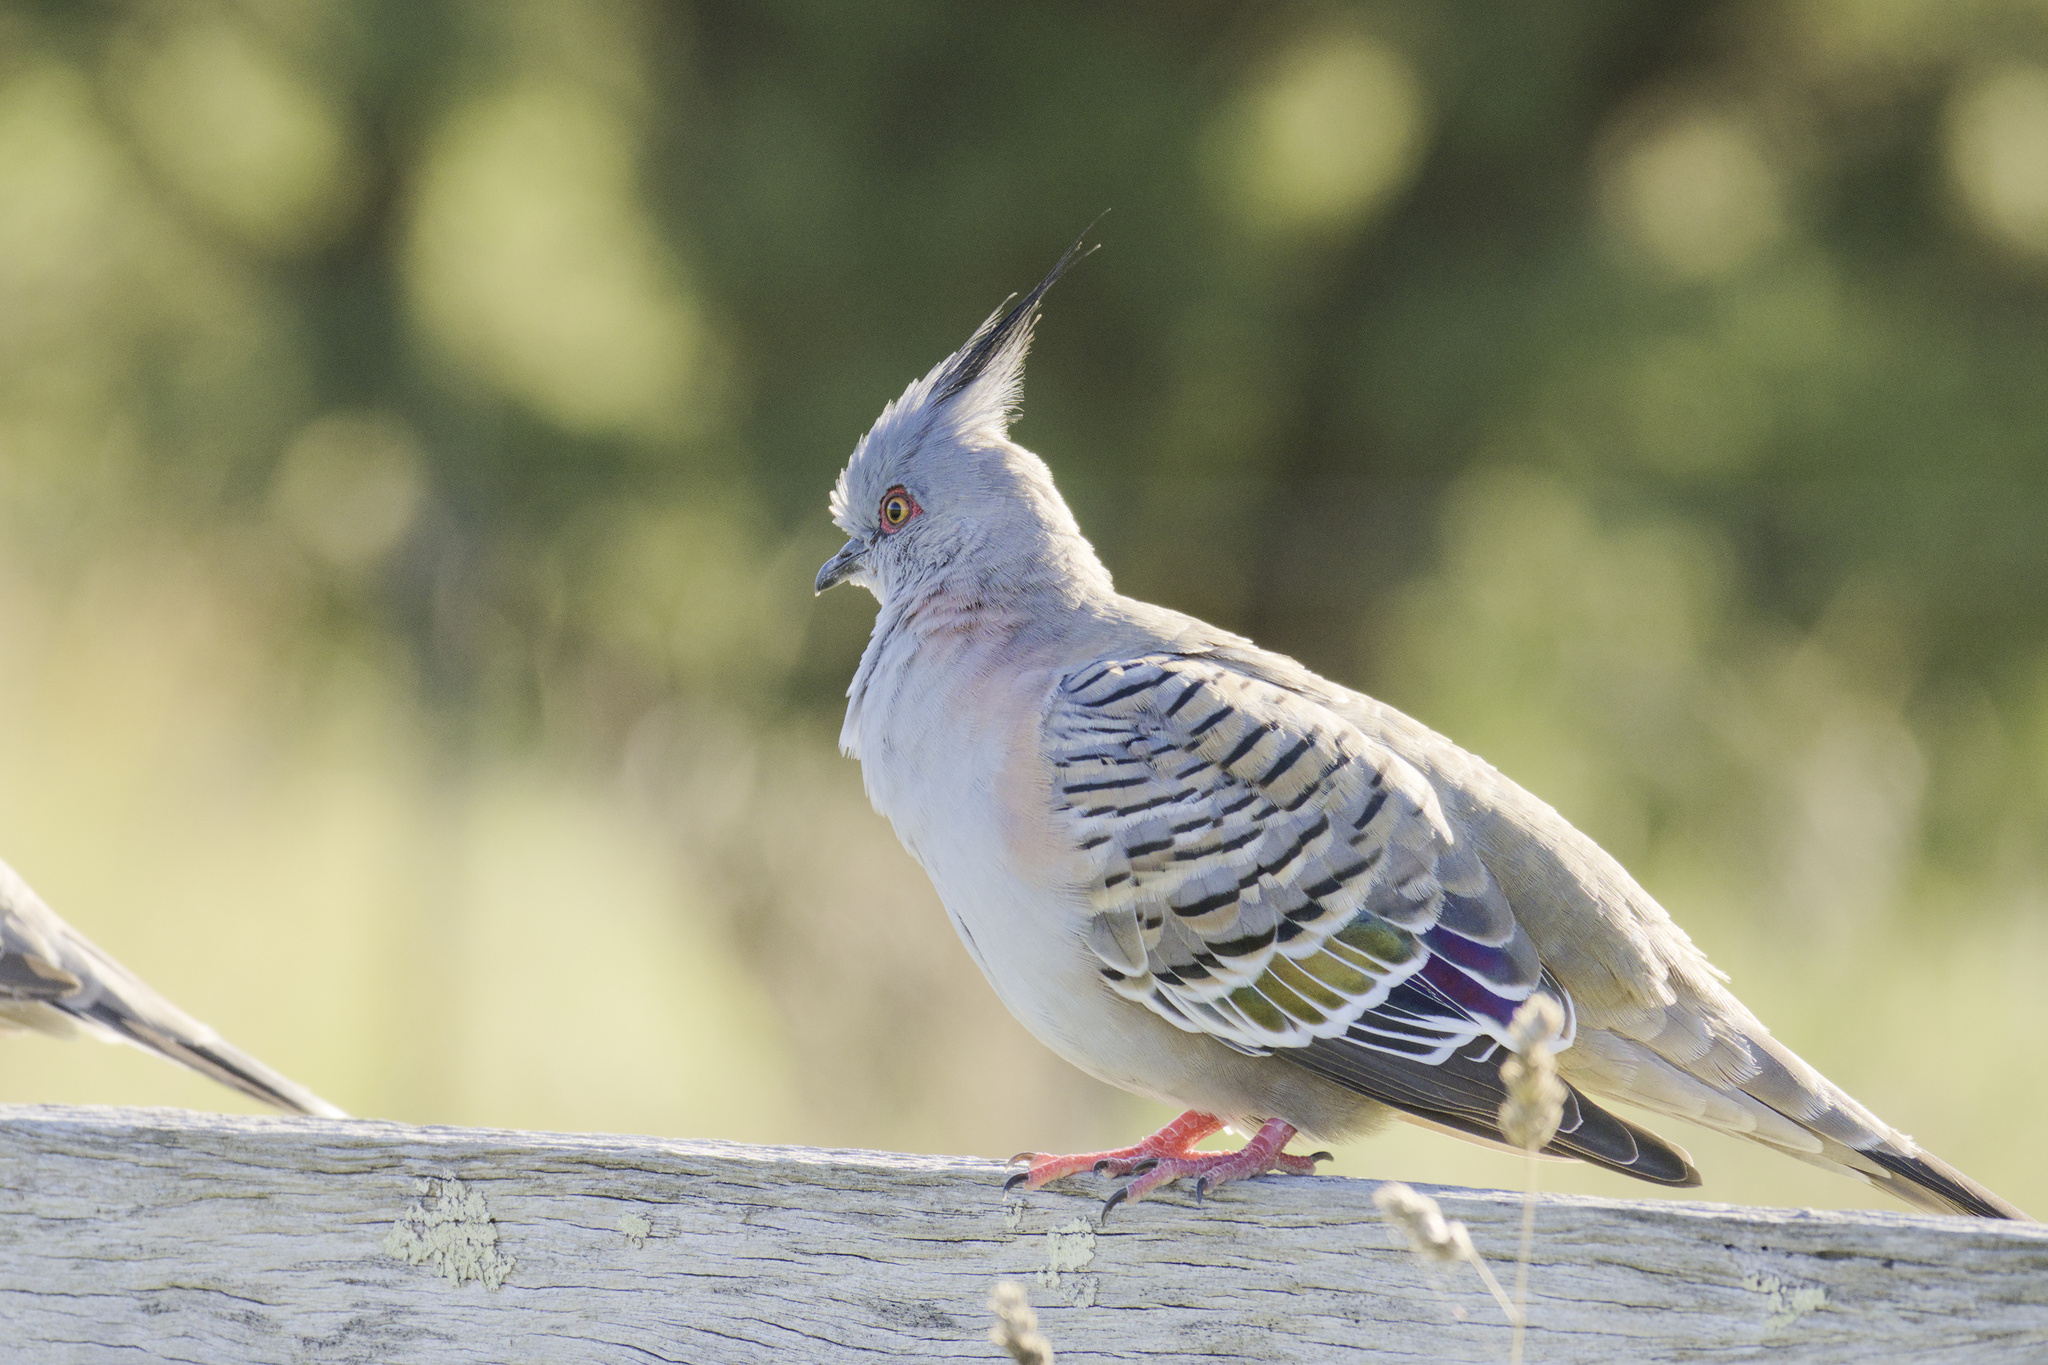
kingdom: Animalia
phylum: Chordata
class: Aves
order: Columbiformes
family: Columbidae
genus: Ocyphaps
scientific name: Ocyphaps lophotes
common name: Crested pigeon
